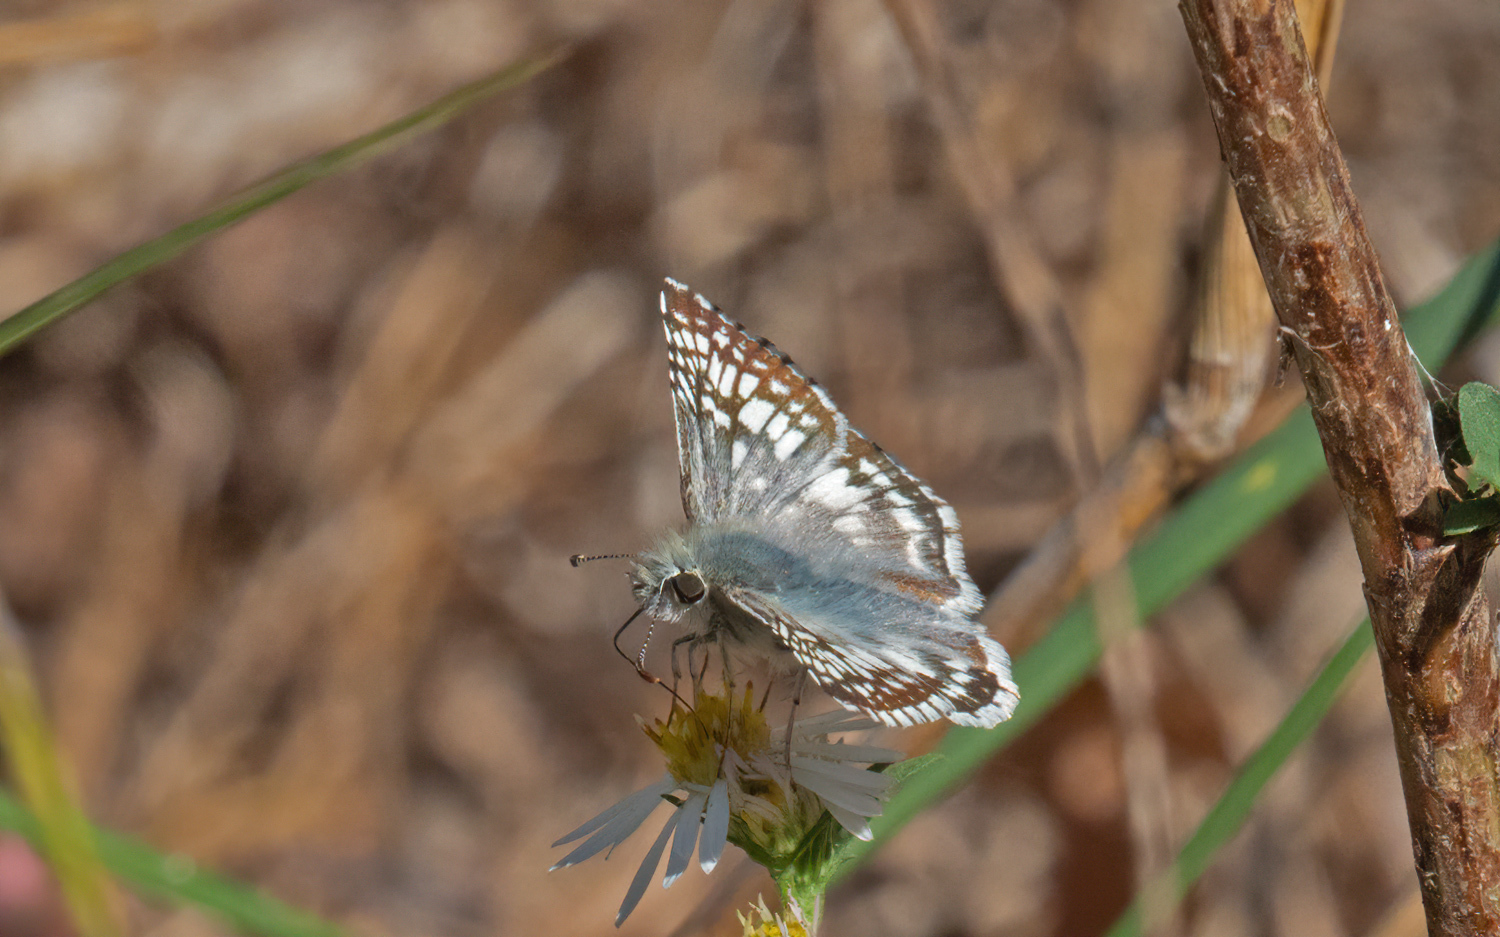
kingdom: Animalia
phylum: Arthropoda
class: Insecta
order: Lepidoptera
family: Hesperiidae
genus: Burnsius
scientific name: Burnsius communis
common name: Common checkered-skipper
